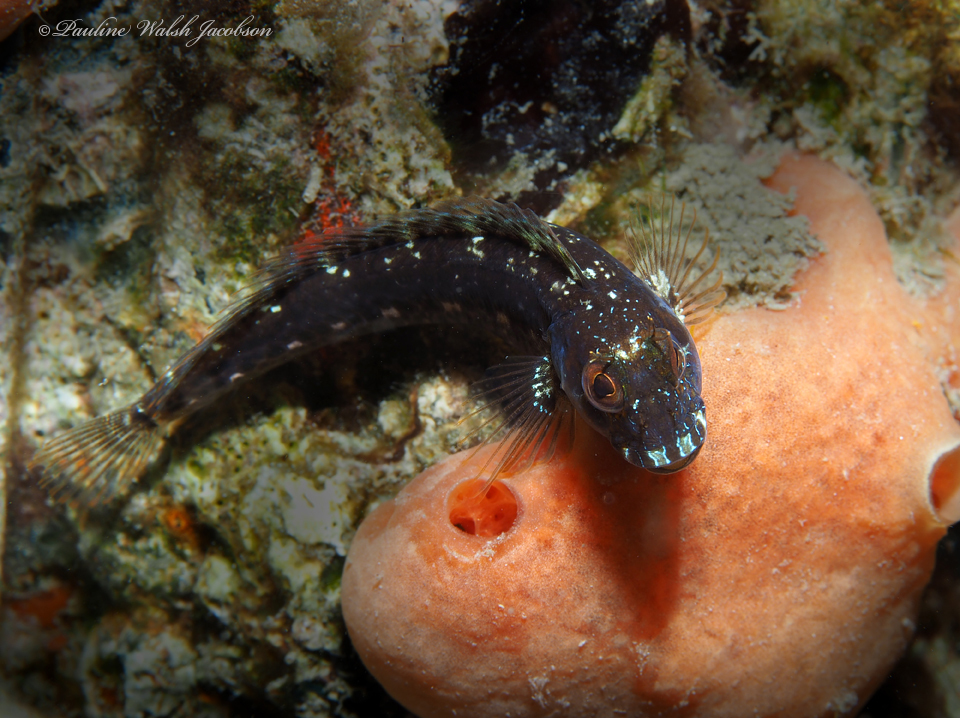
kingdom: Animalia
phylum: Chordata
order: Perciformes
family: Blenniidae
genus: Parablennius
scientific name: Parablennius marmoreus
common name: Seaweed blenny
